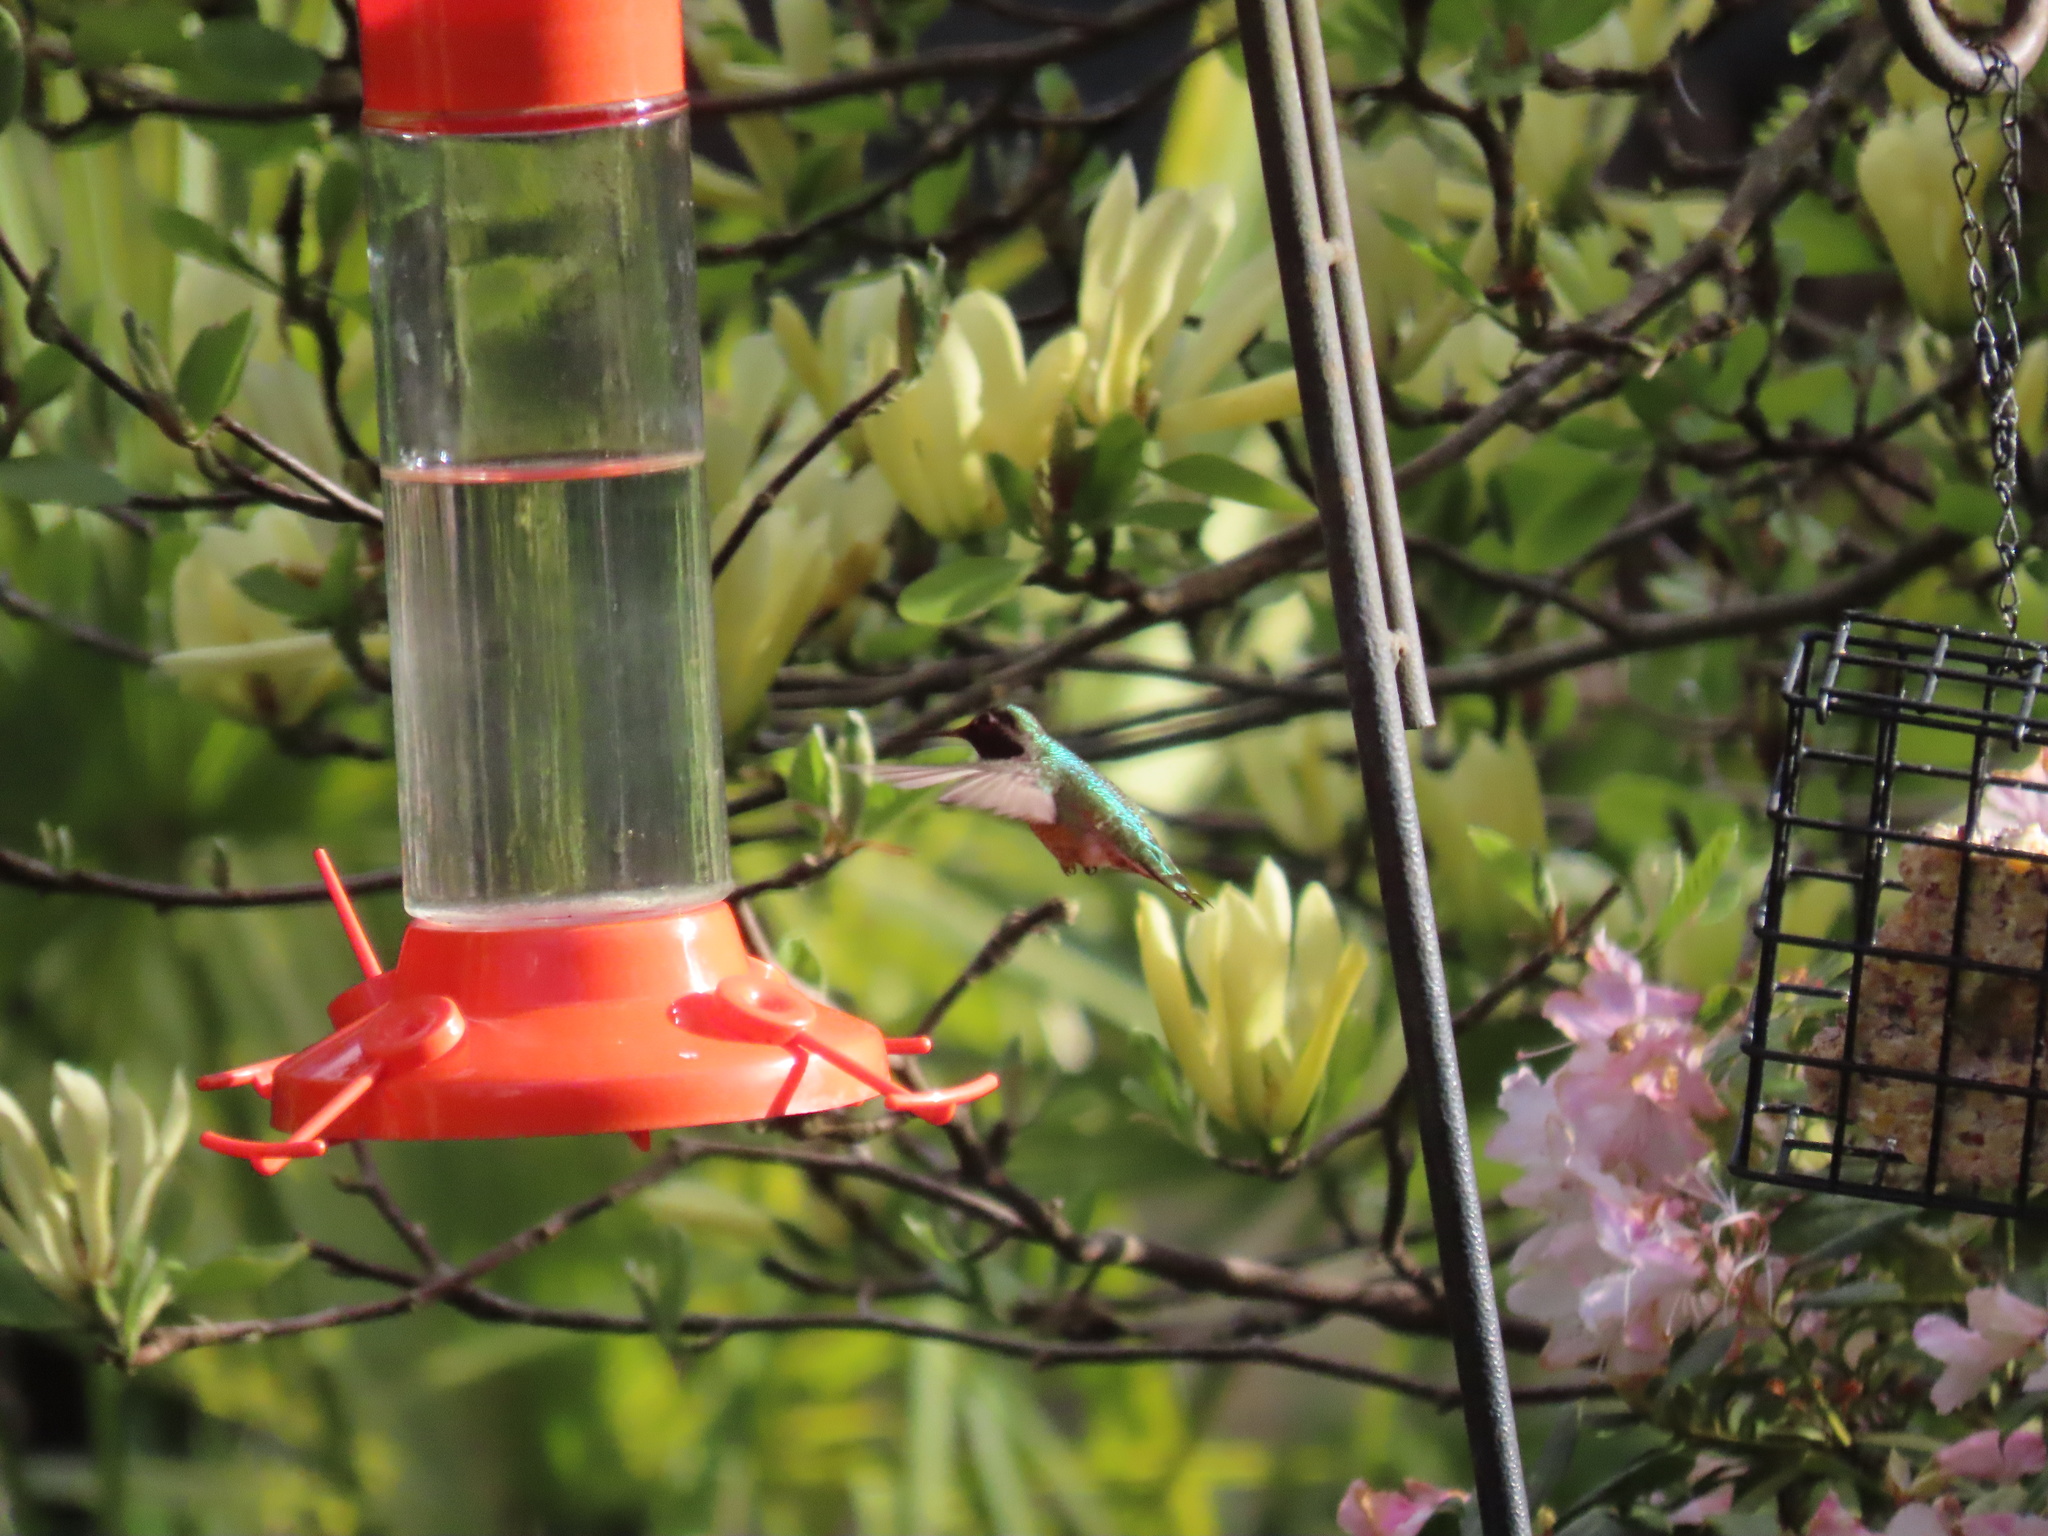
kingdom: Animalia
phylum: Chordata
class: Aves
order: Apodiformes
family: Trochilidae
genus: Calypte
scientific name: Calypte anna
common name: Anna's hummingbird
